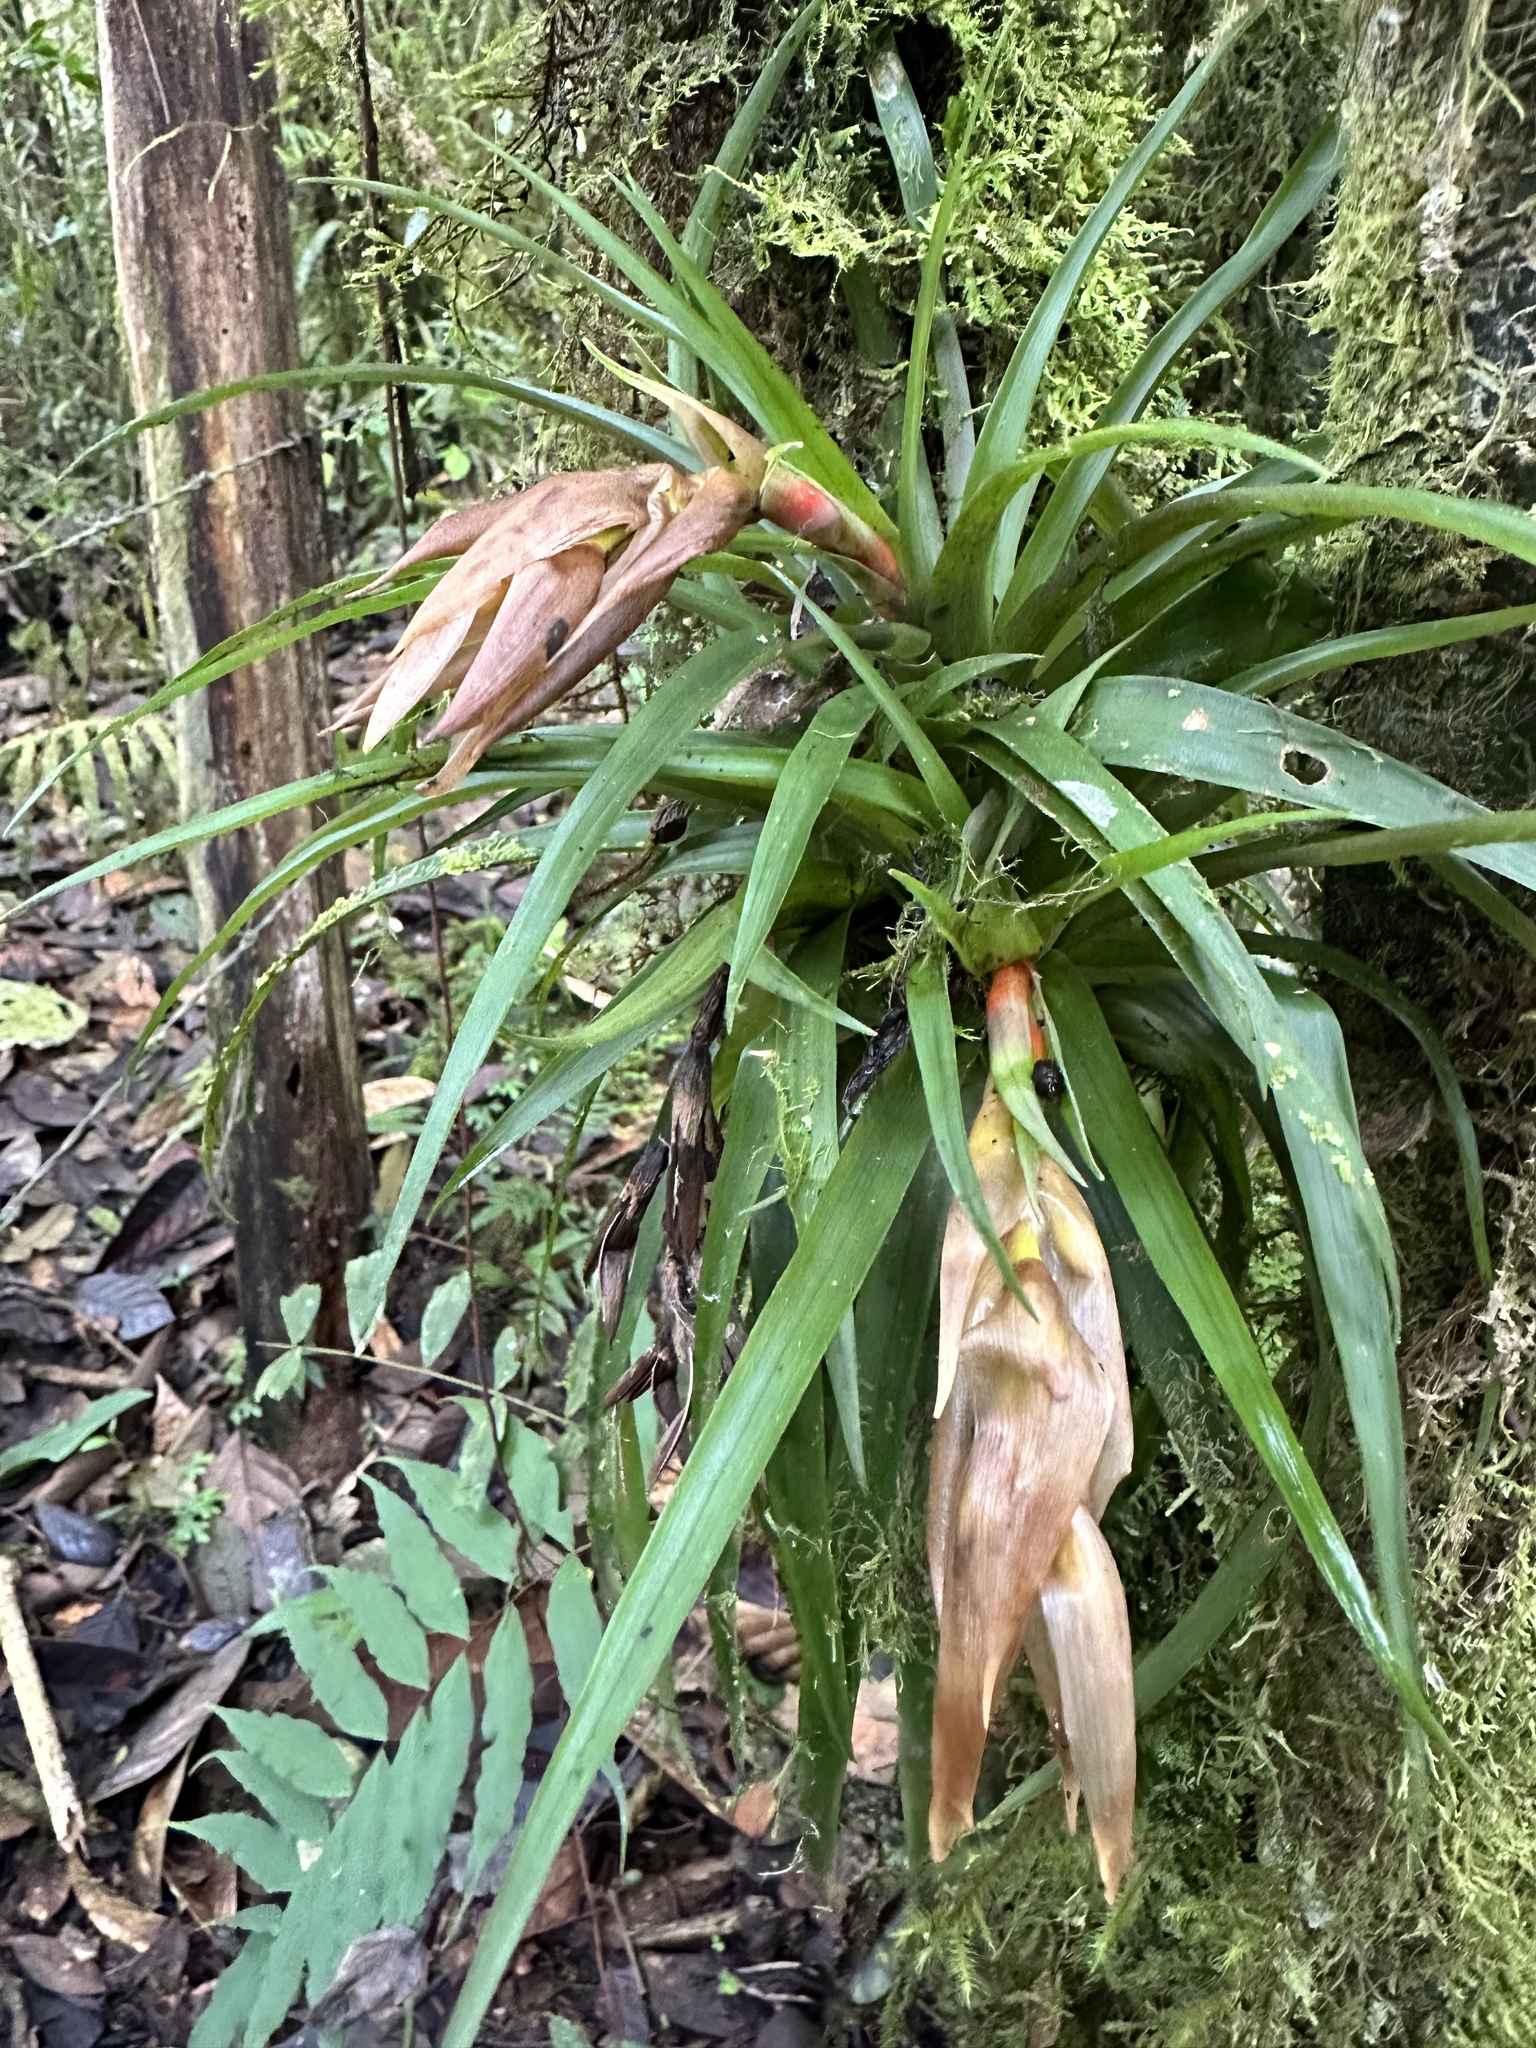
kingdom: Plantae
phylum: Tracheophyta
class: Liliopsida
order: Poales
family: Bromeliaceae
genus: Guzmania
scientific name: Guzmania angustifolia
